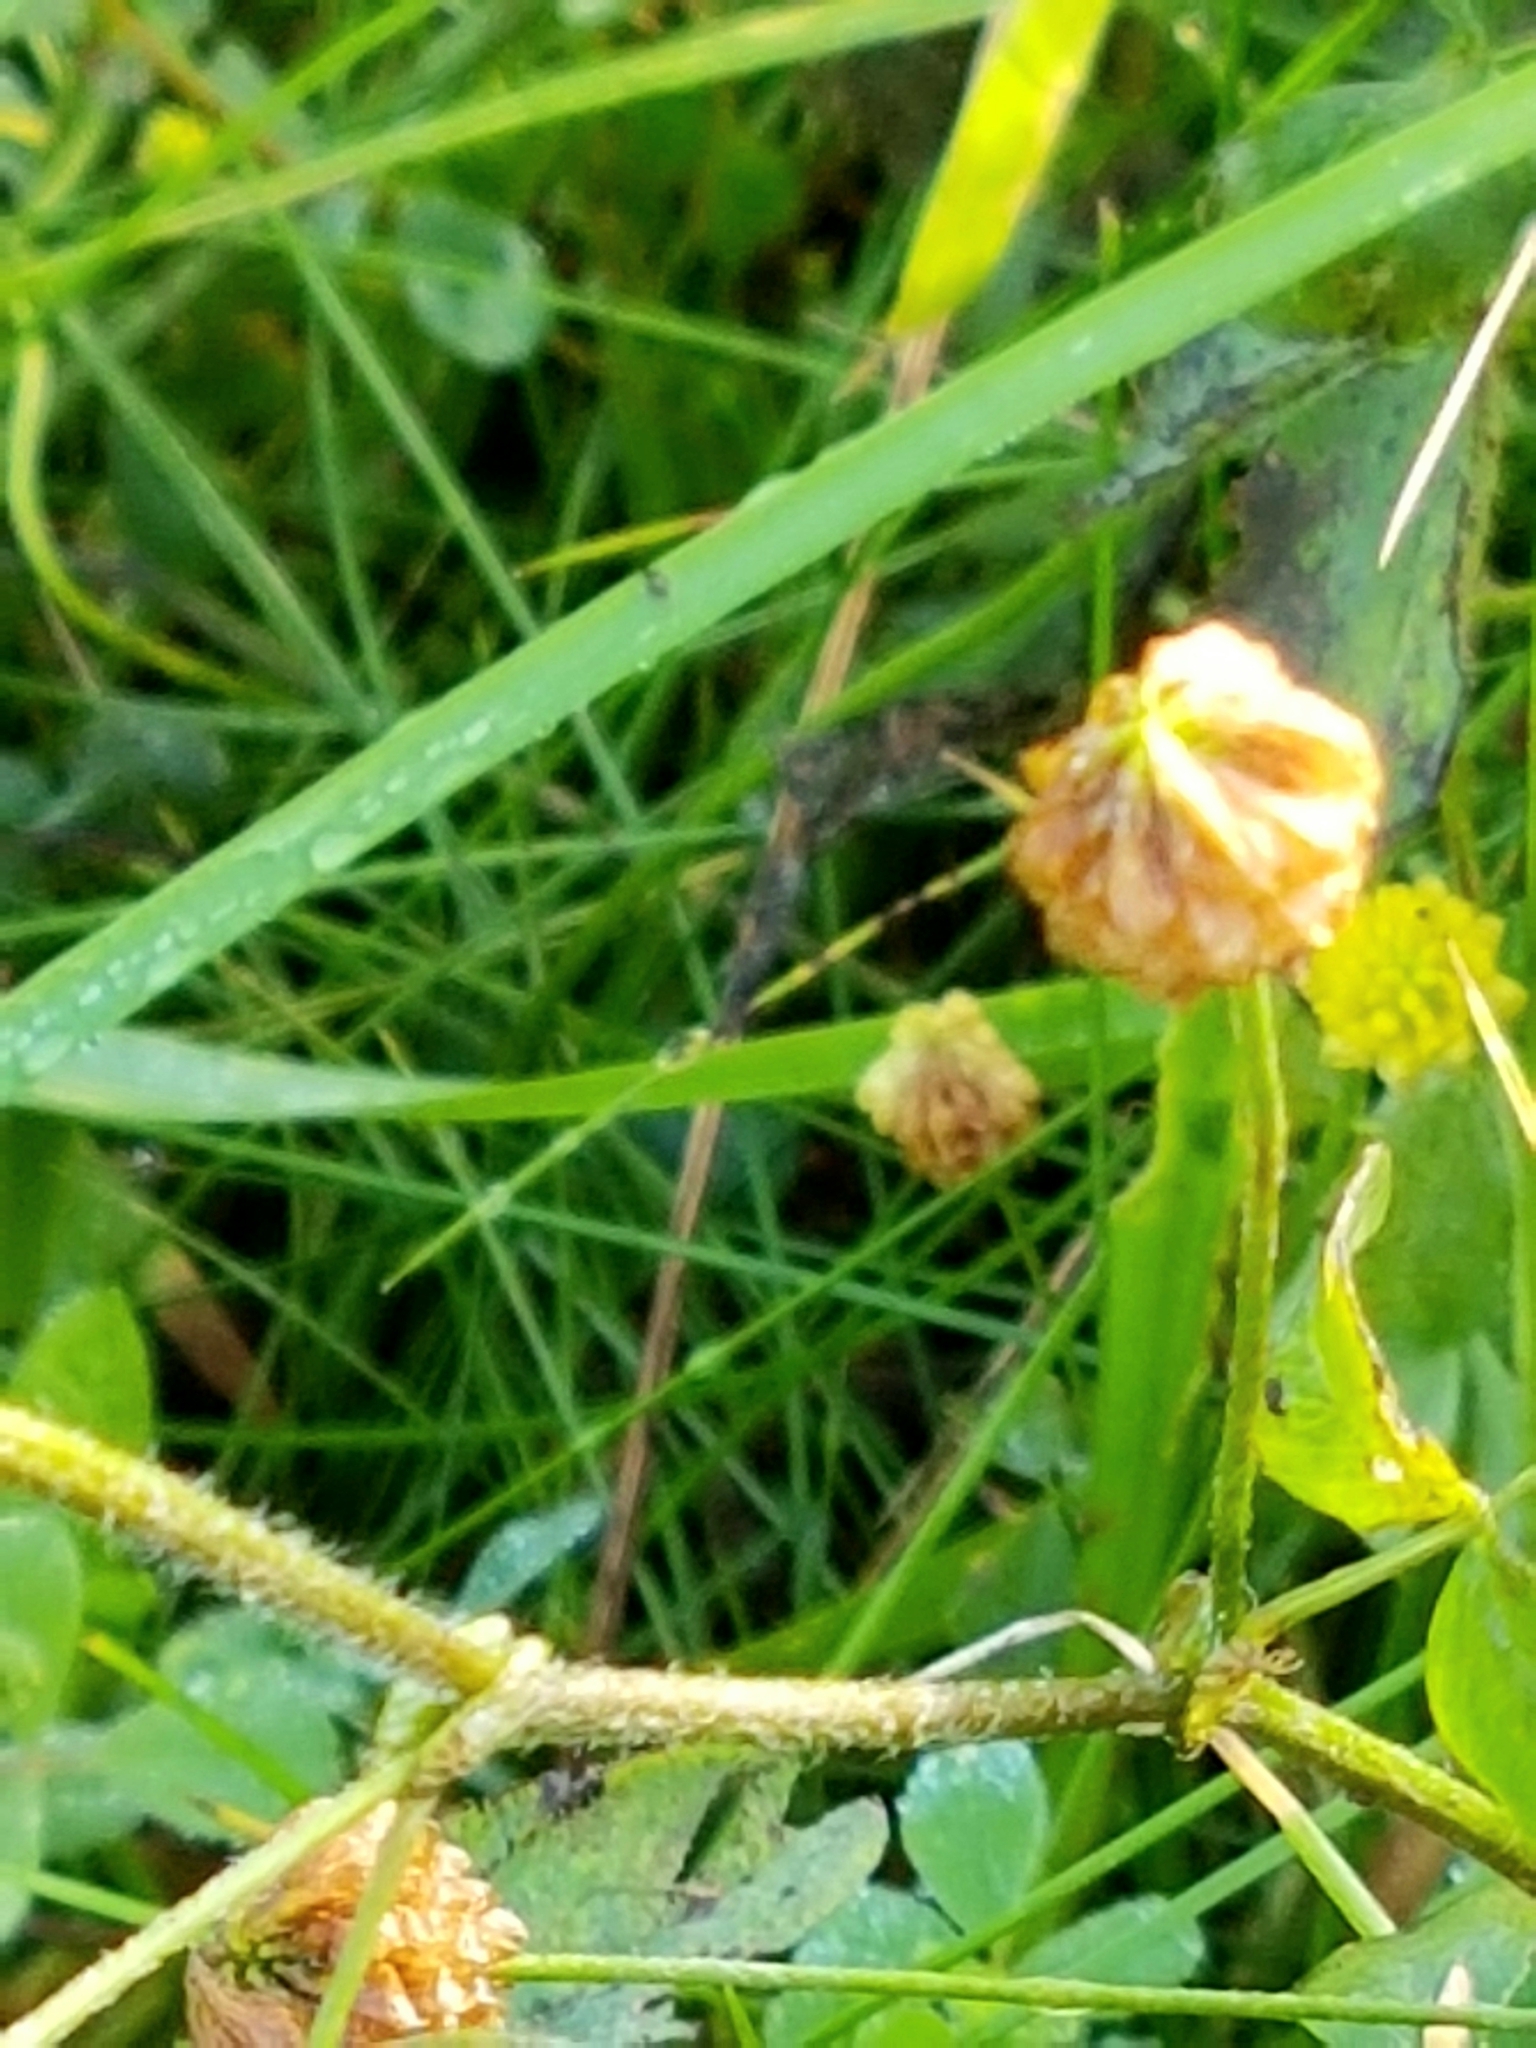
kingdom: Plantae
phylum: Tracheophyta
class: Magnoliopsida
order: Fabales
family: Fabaceae
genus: Trifolium
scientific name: Trifolium campestre
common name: Field clover
